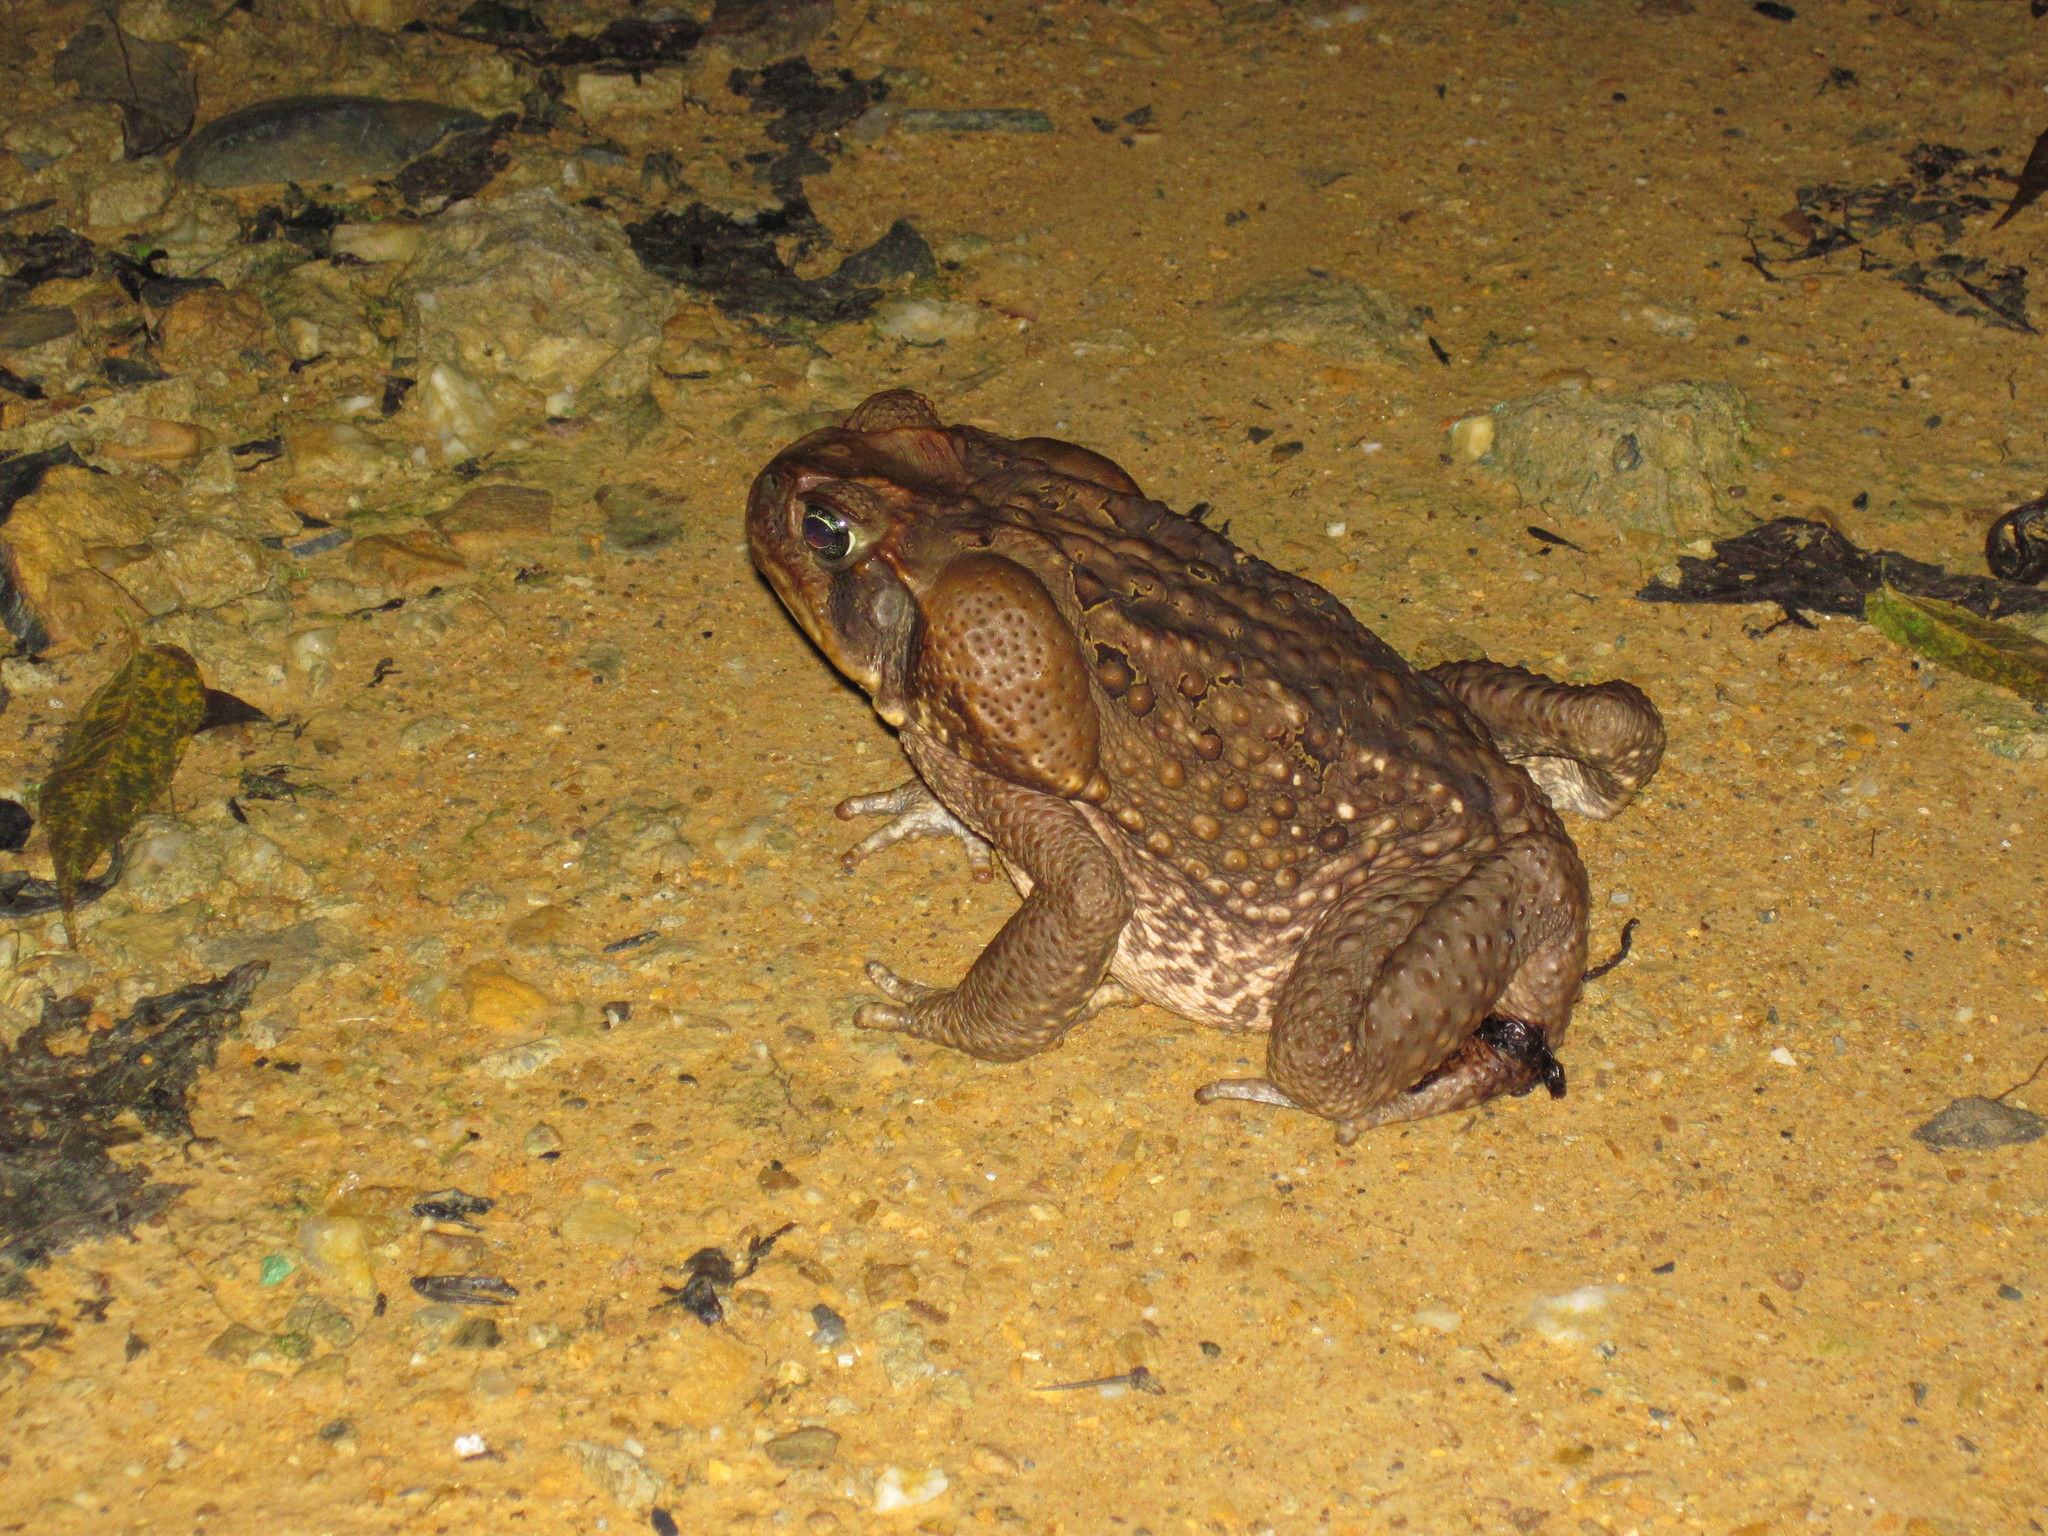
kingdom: Animalia
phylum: Chordata
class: Amphibia
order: Anura
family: Bufonidae
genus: Rhinella
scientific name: Rhinella marina
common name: Cane toad
